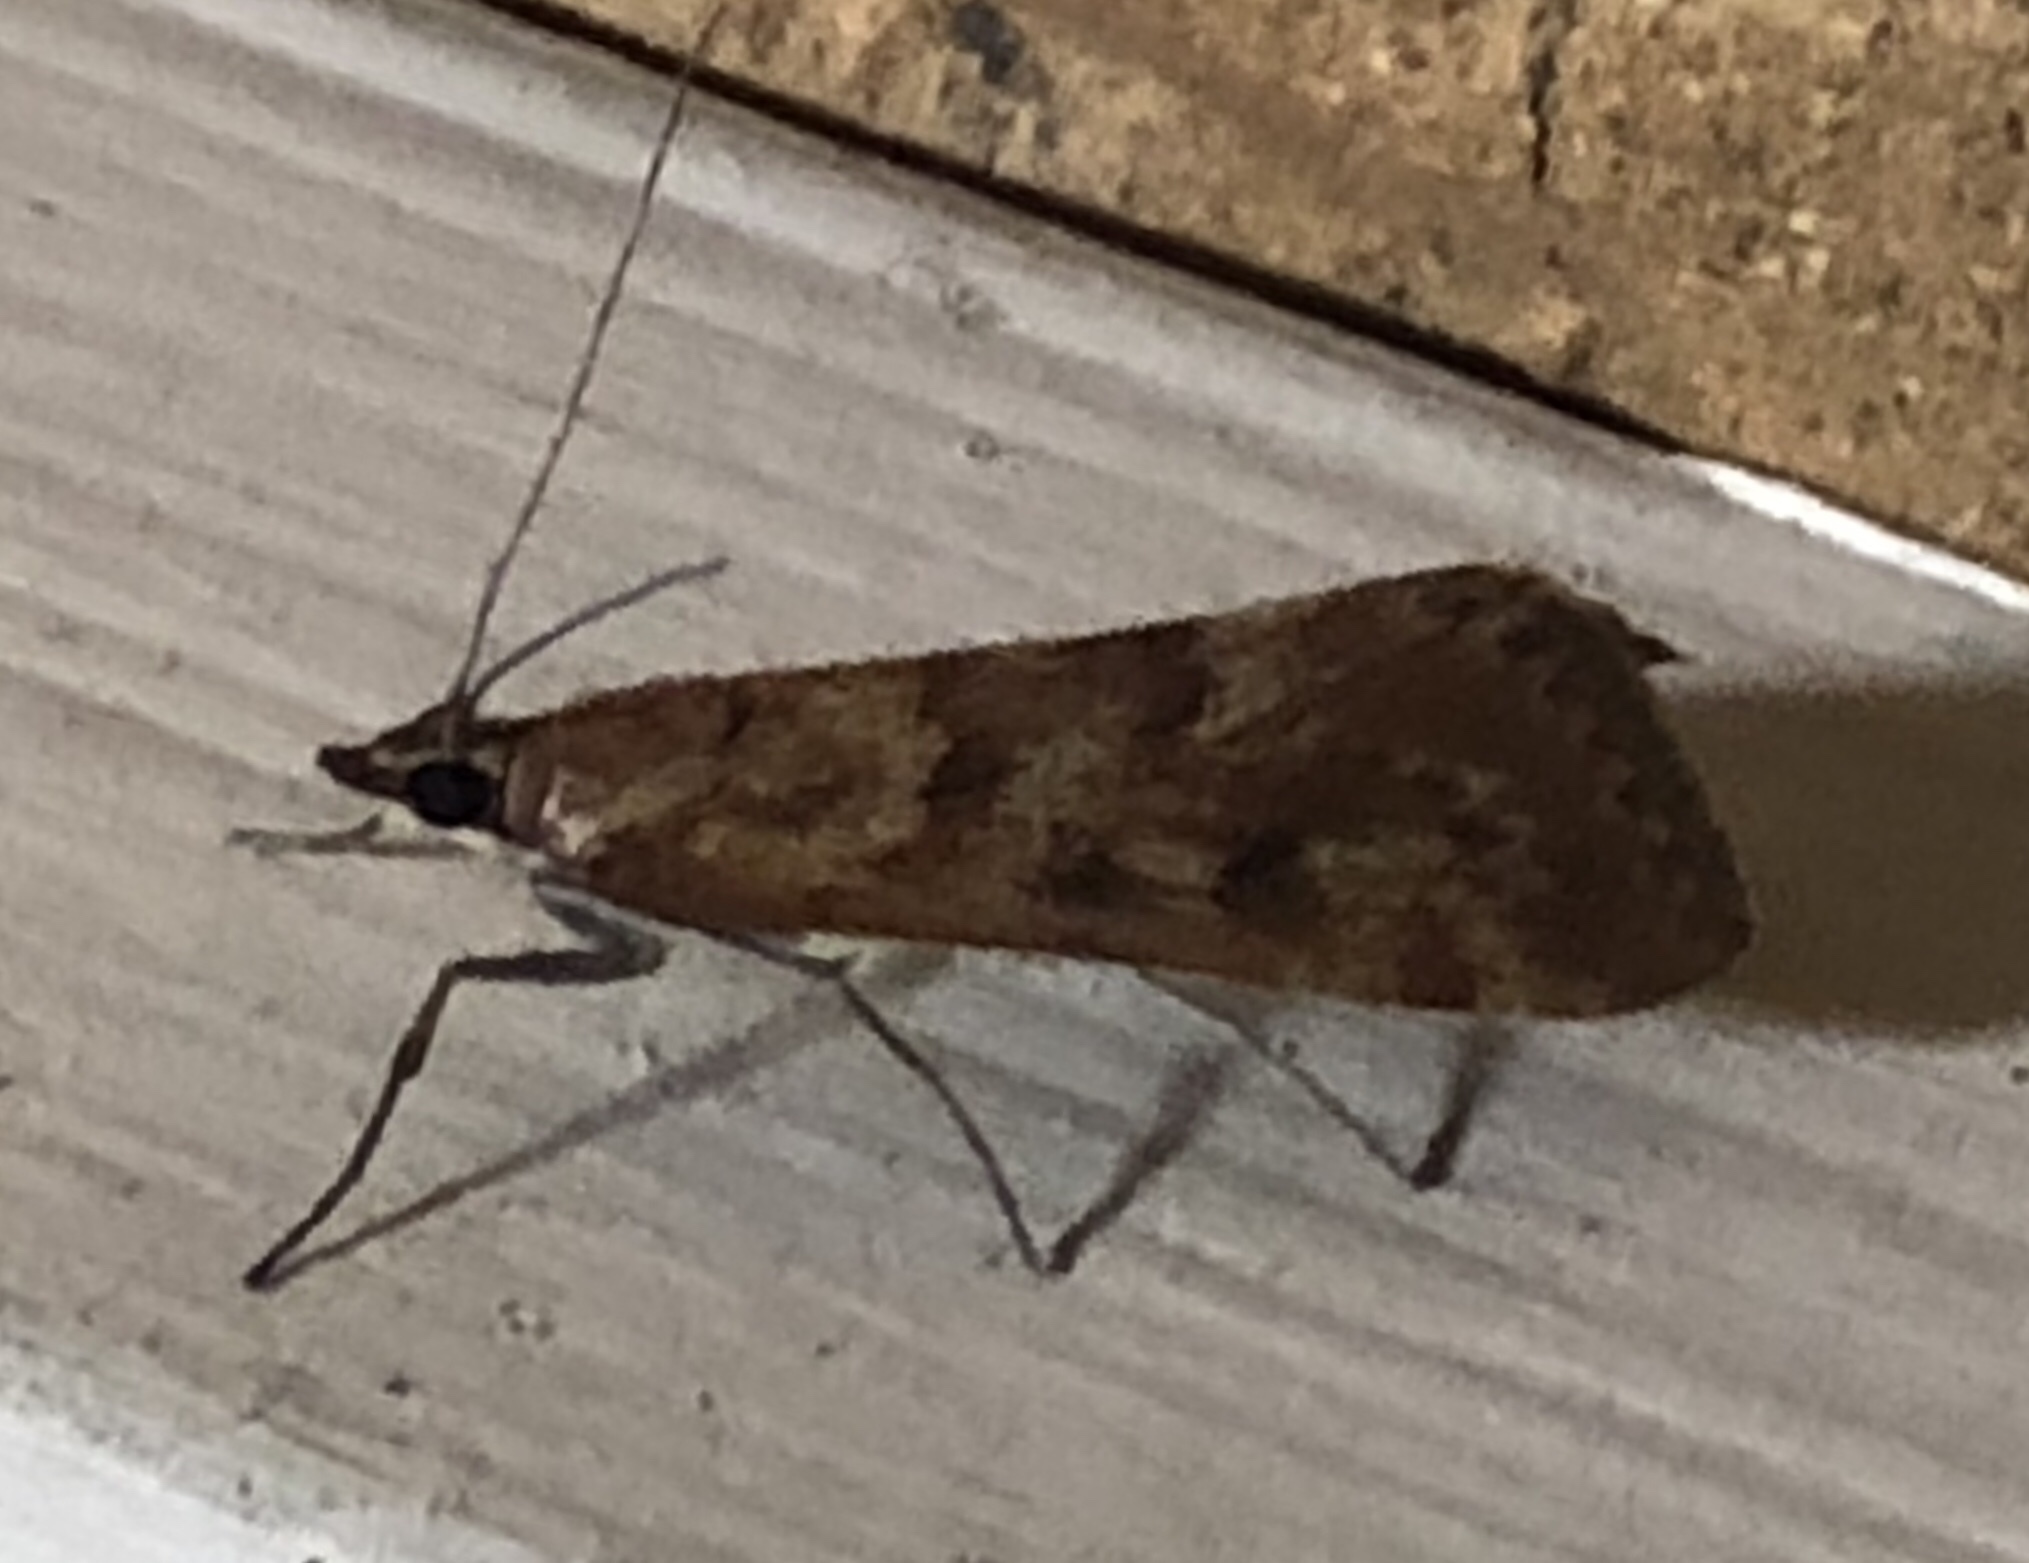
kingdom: Animalia
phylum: Arthropoda
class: Insecta
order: Lepidoptera
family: Crambidae
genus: Achyra
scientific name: Achyra affinitalis
